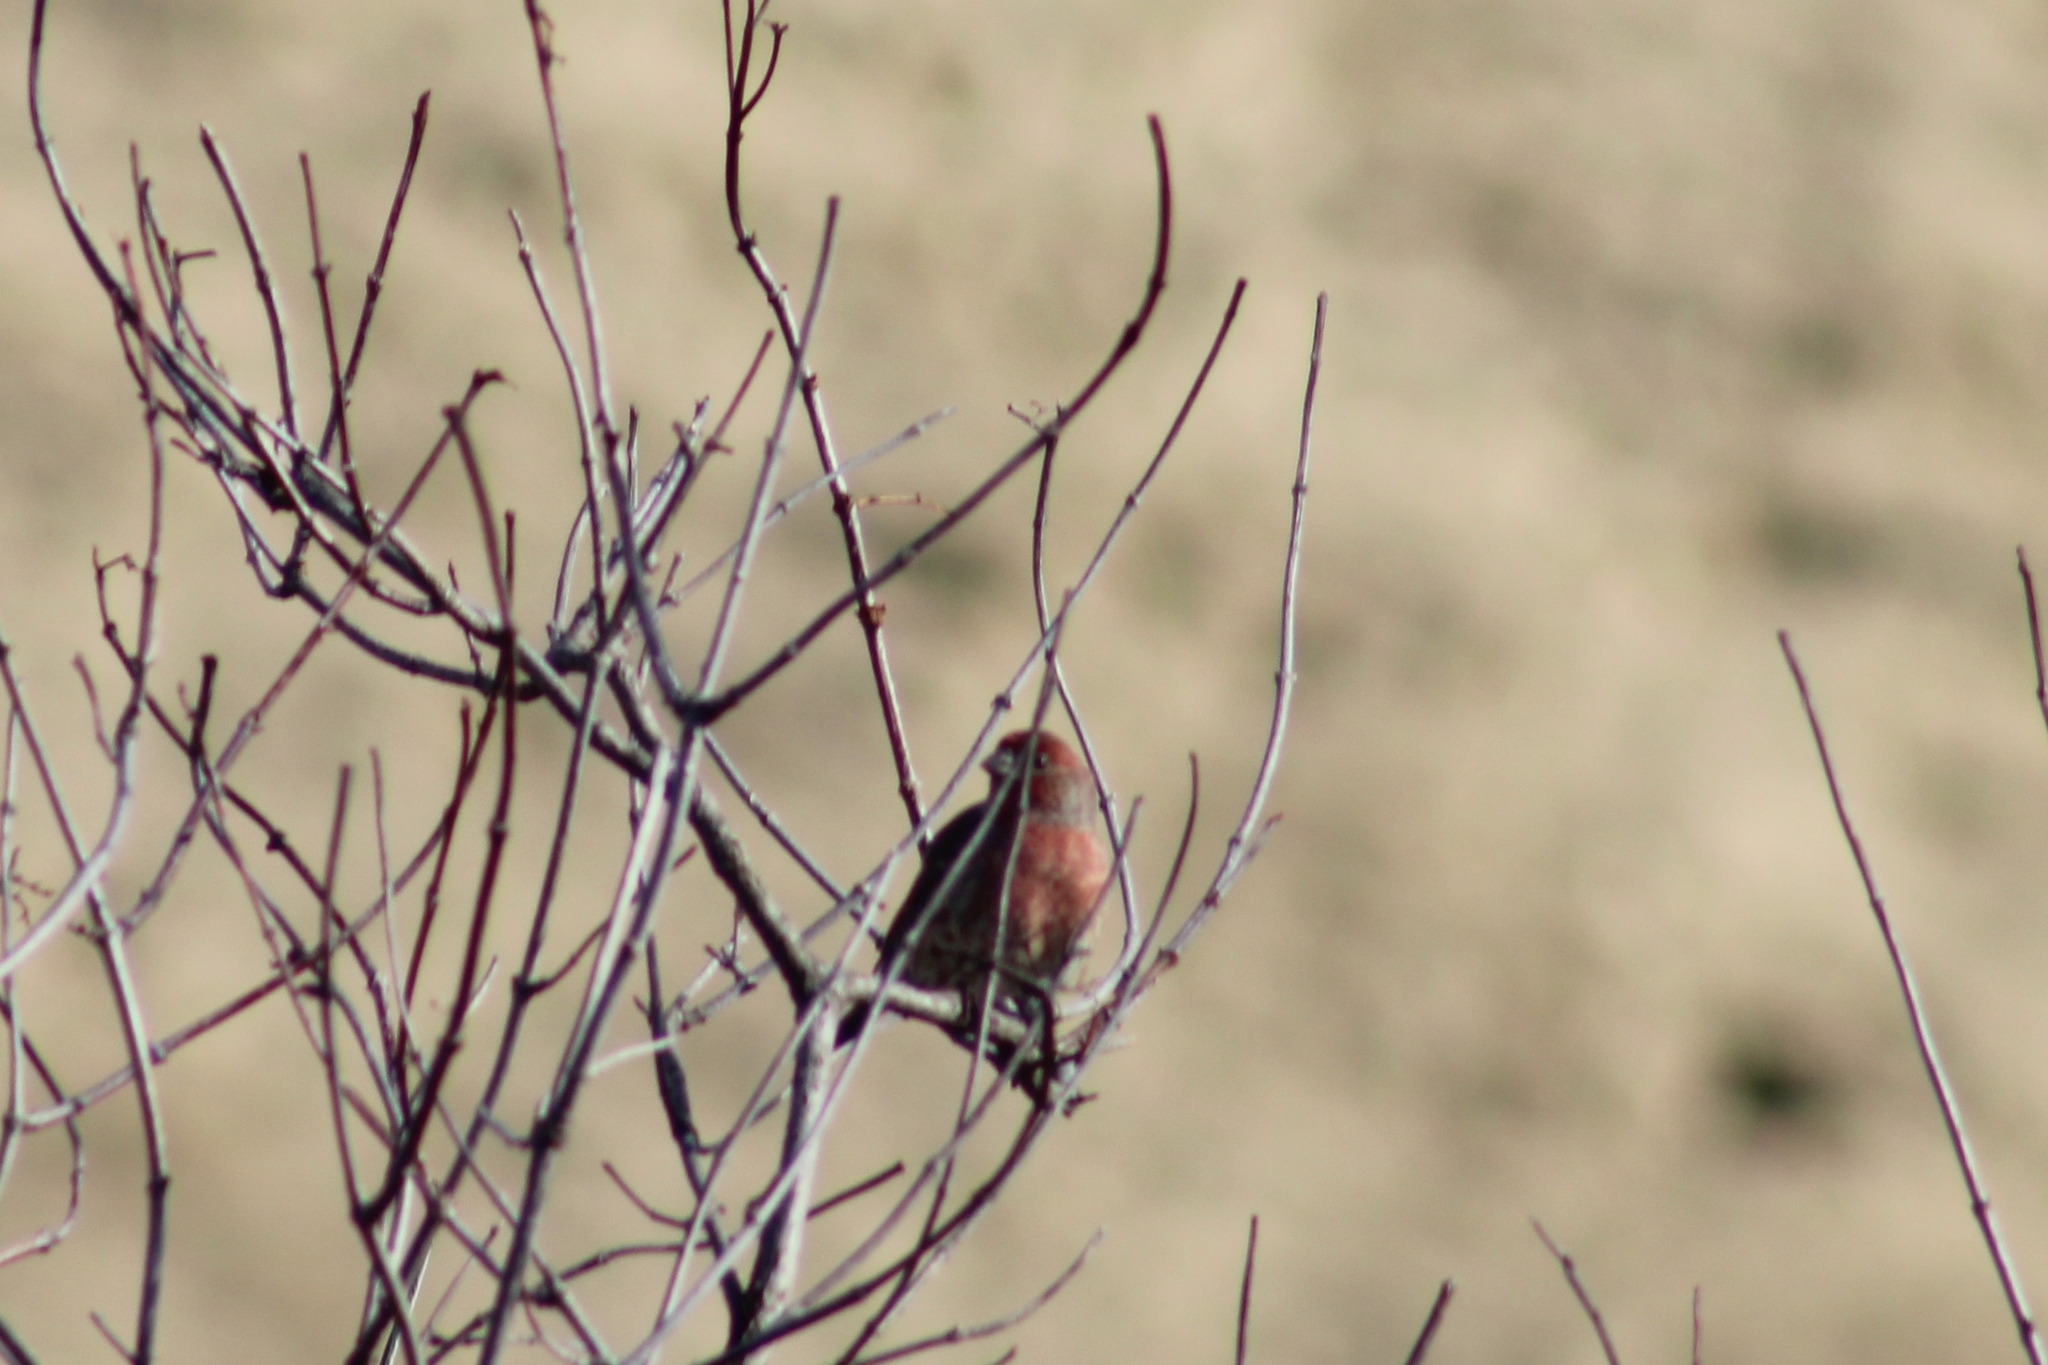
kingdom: Animalia
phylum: Chordata
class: Aves
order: Passeriformes
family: Fringillidae
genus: Haemorhous
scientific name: Haemorhous mexicanus
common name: House finch
